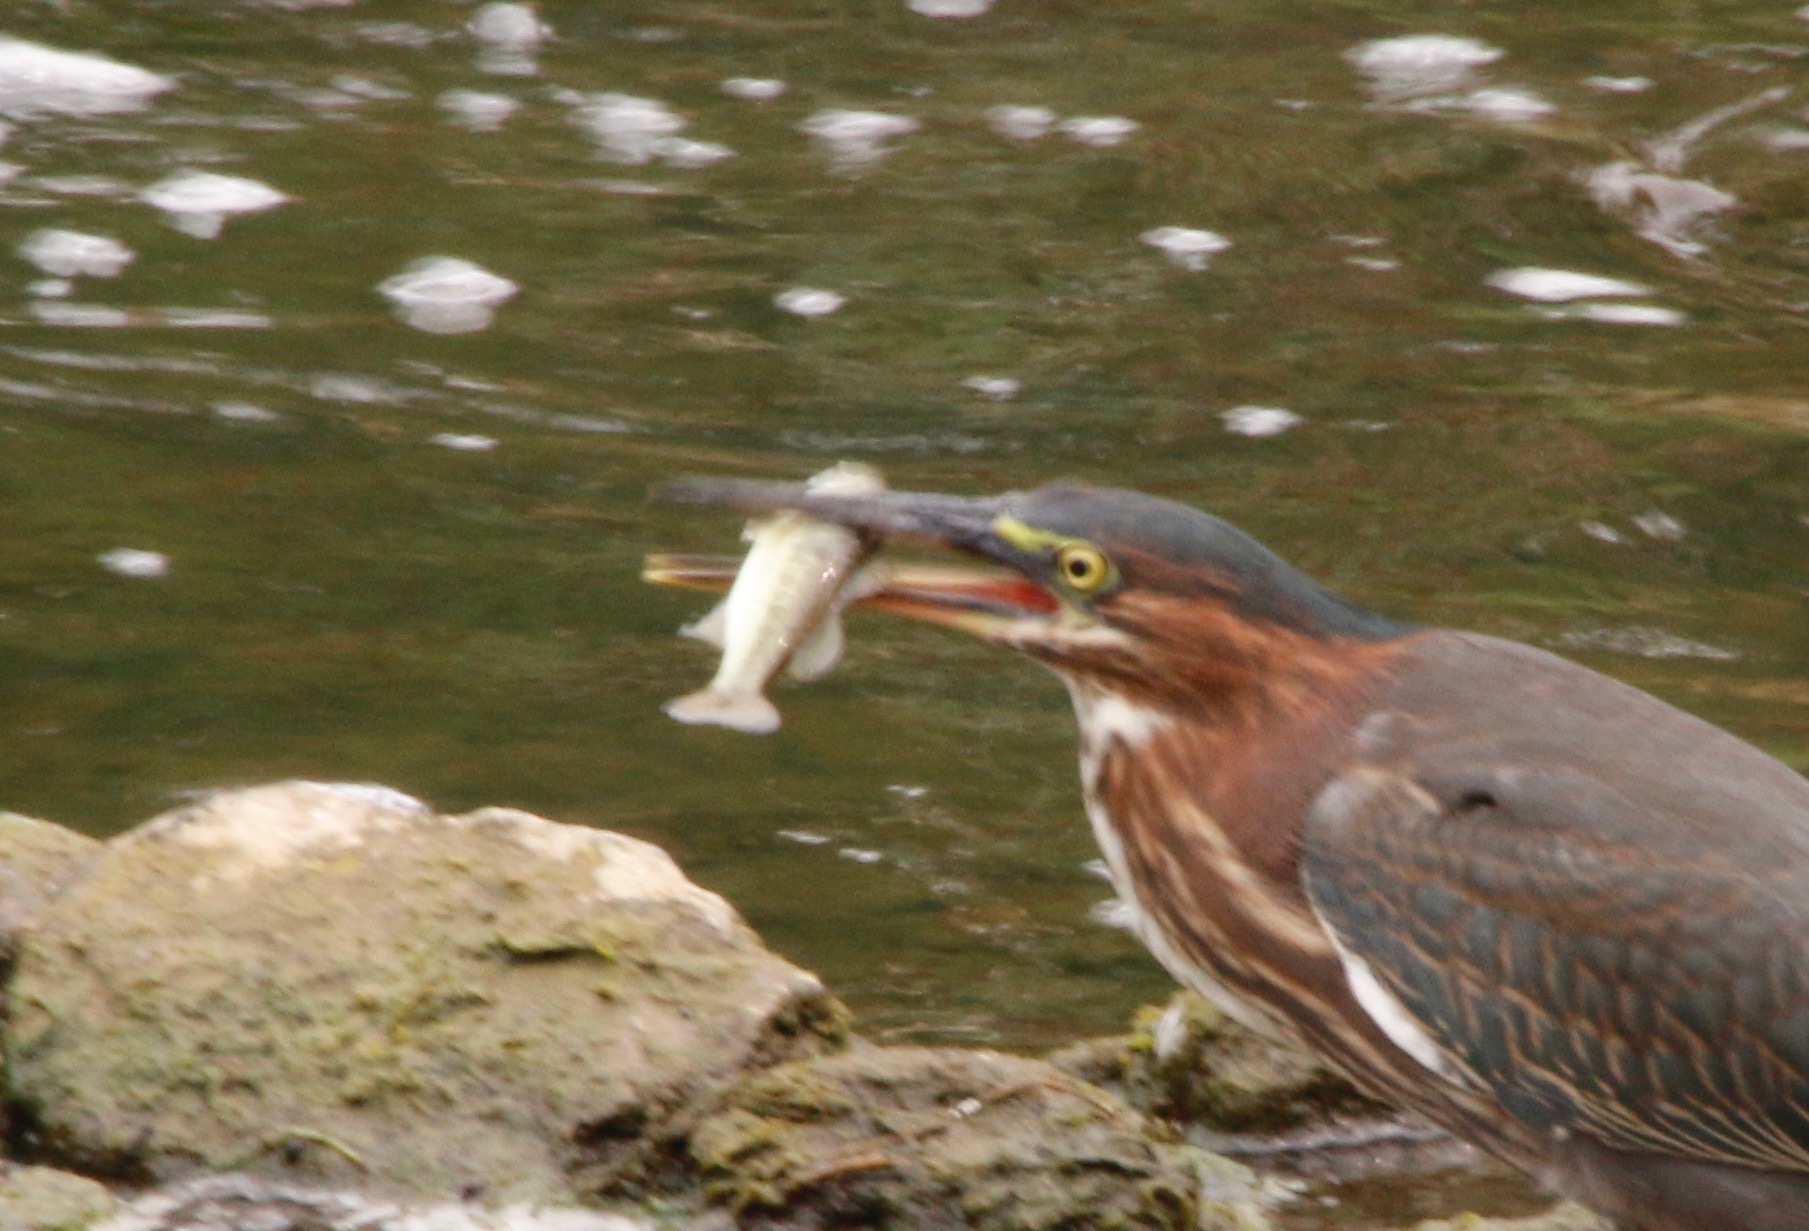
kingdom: Animalia
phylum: Chordata
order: Perciformes
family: Centrarchidae
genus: Micropterus
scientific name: Micropterus
